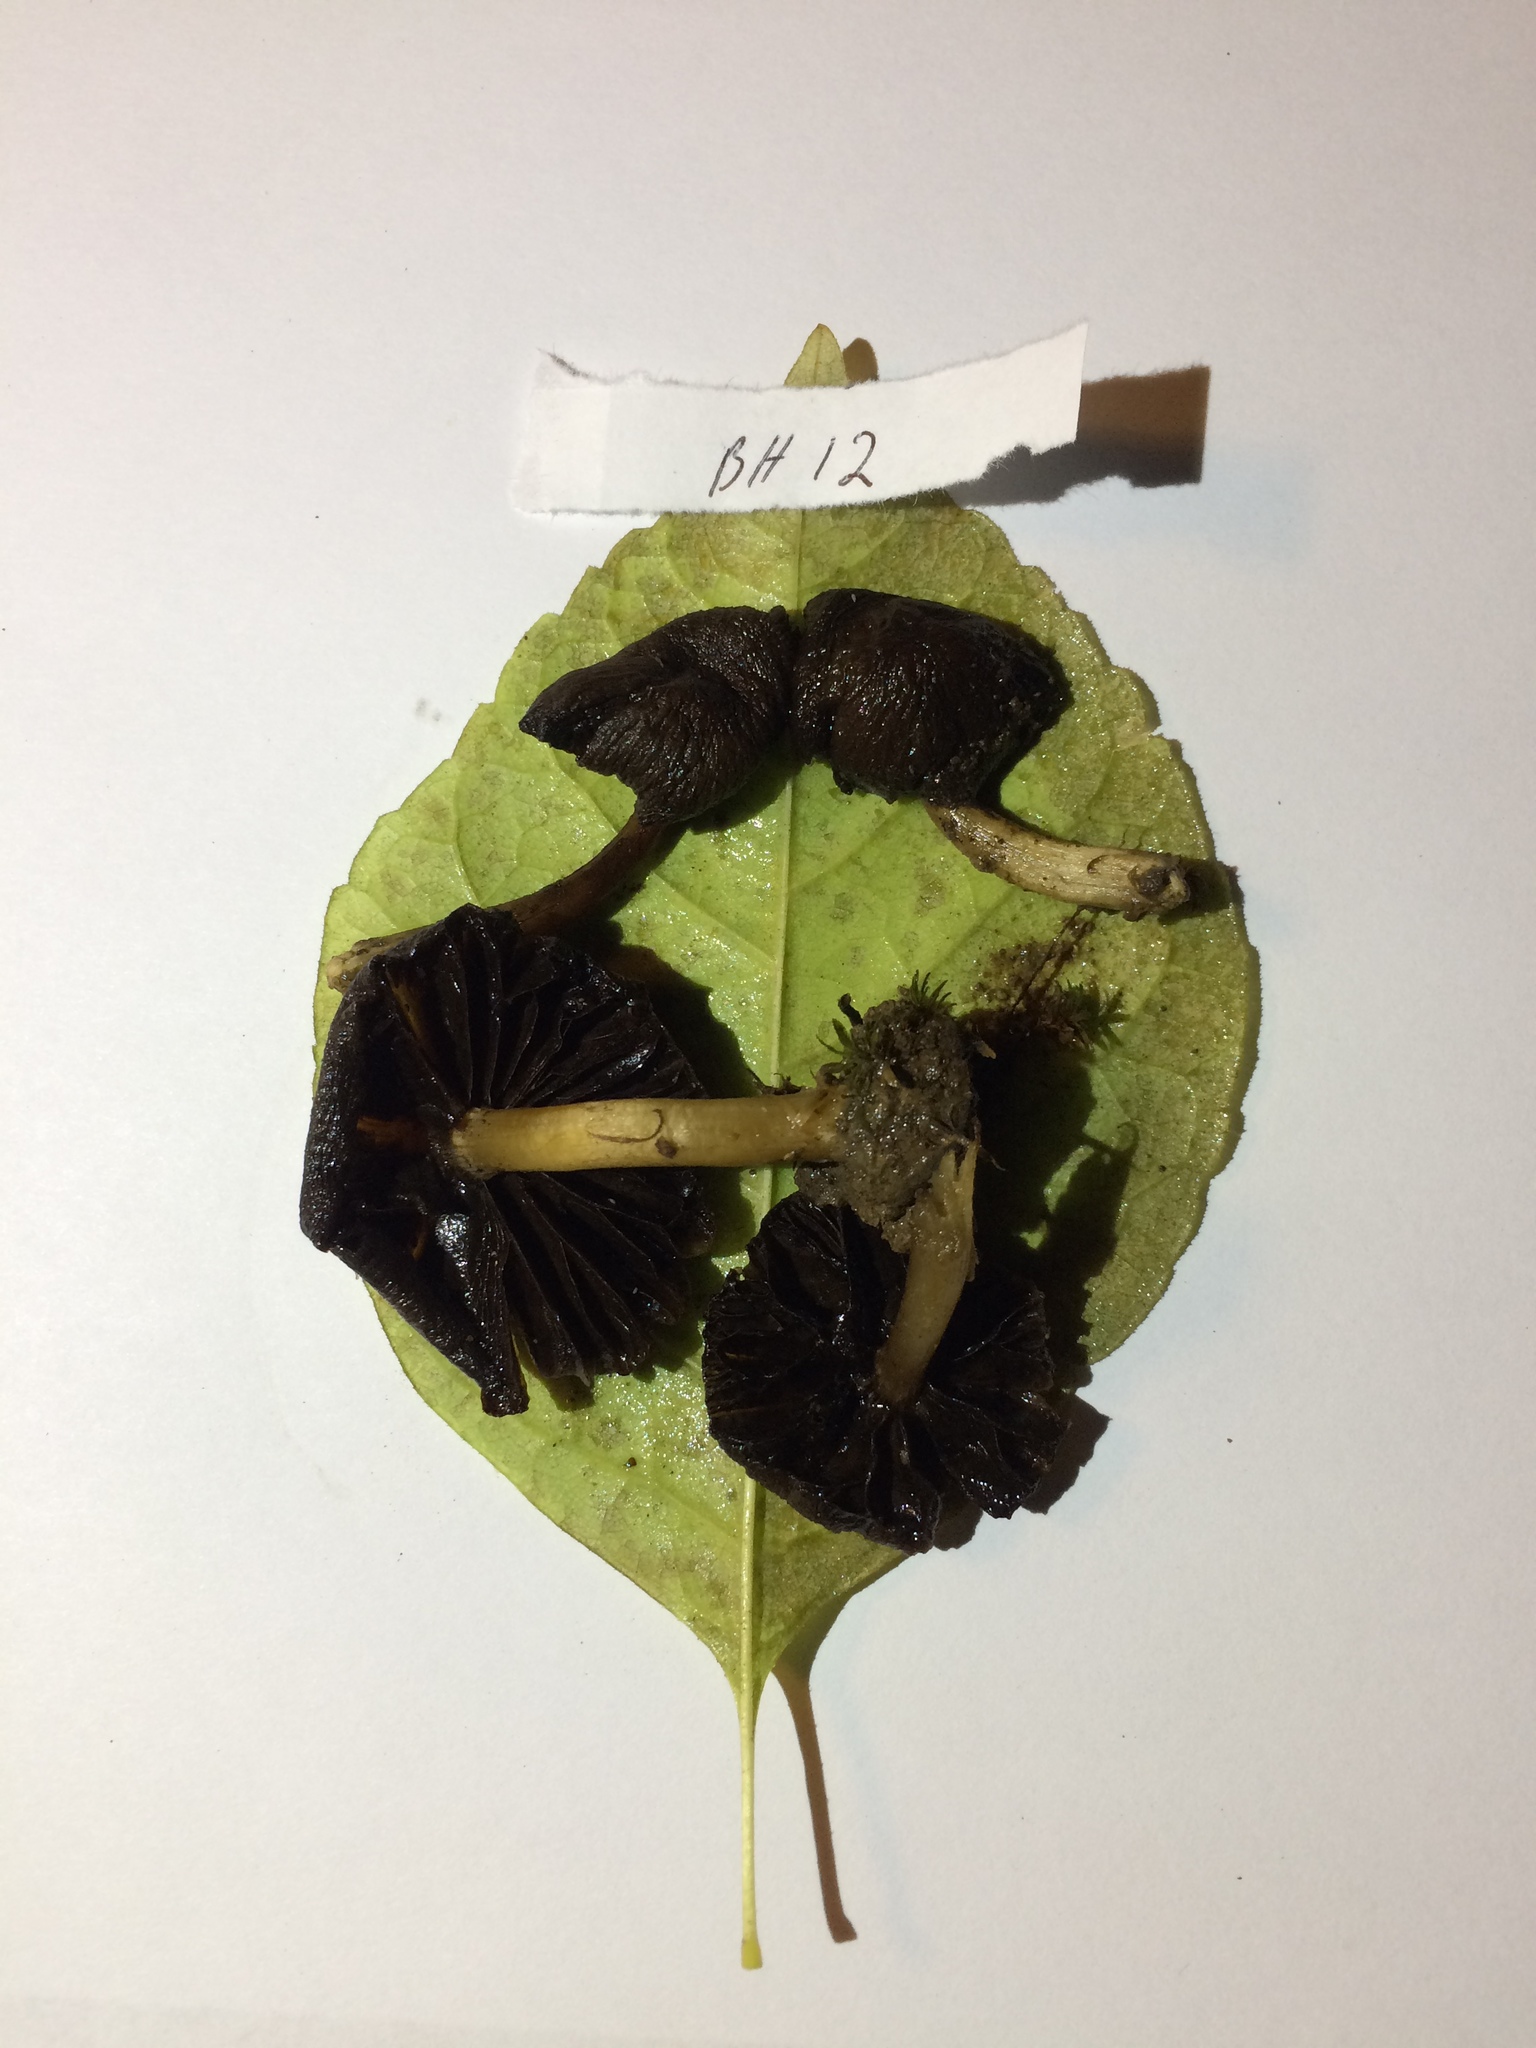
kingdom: Fungi
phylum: Basidiomycota
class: Agaricomycetes
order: Agaricales
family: Psathyrellaceae
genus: Typhrasa
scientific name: Typhrasa gossypina
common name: Wrinkled psathyrella
